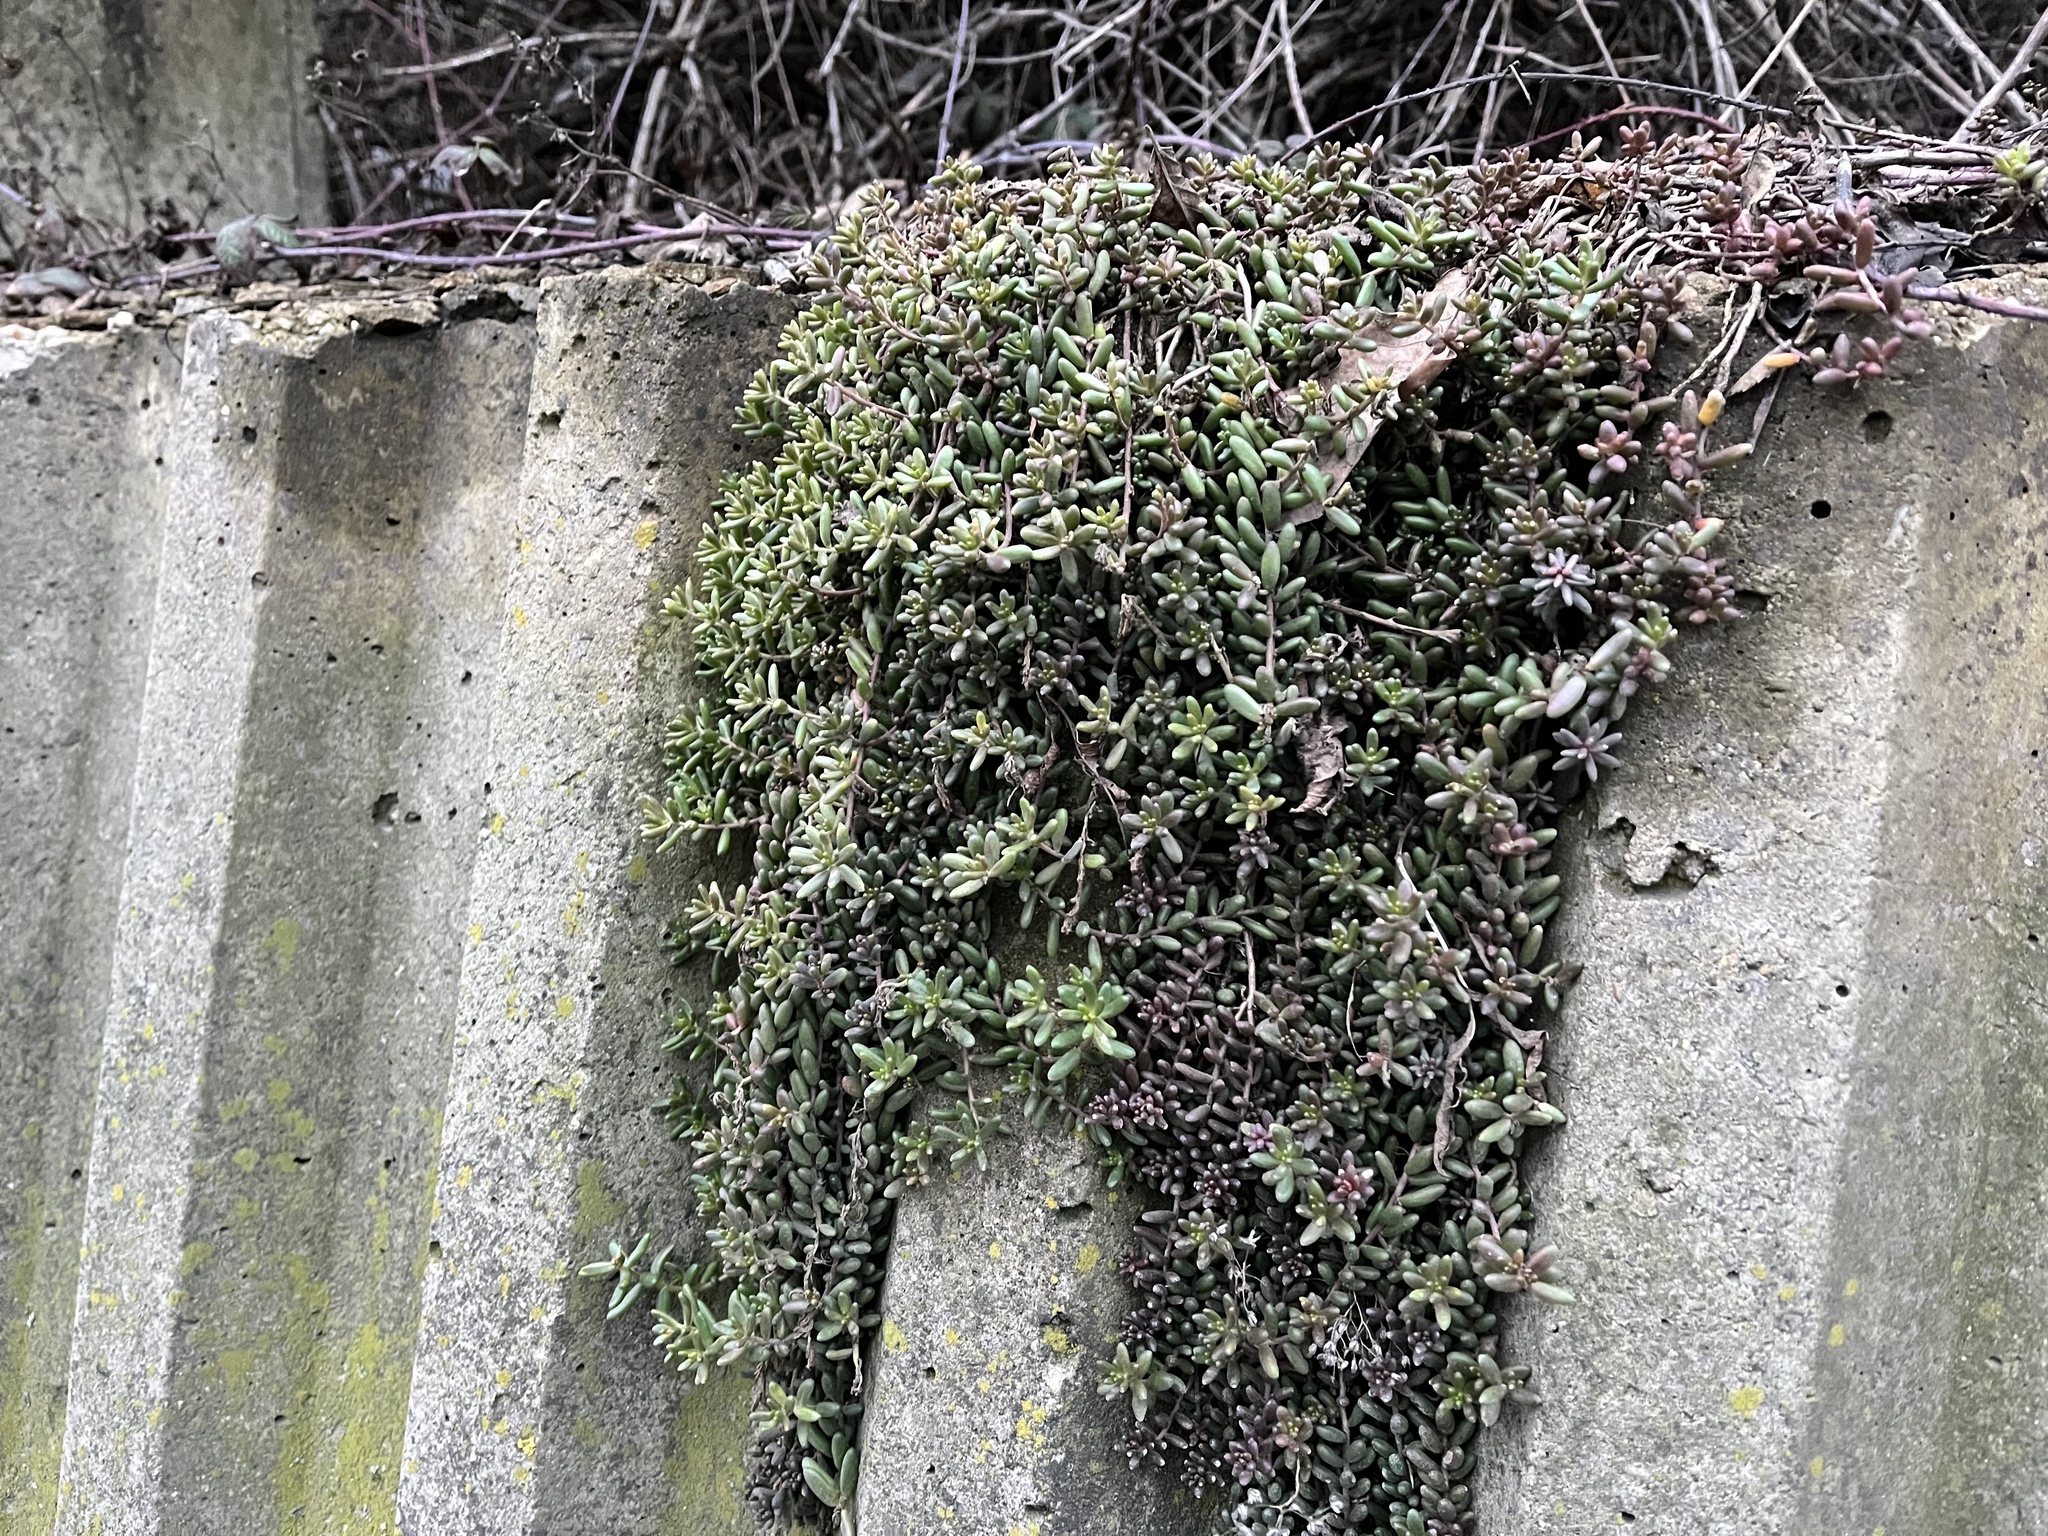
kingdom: Plantae
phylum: Tracheophyta
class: Magnoliopsida
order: Saxifragales
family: Crassulaceae
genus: Sedum
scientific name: Sedum album
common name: White stonecrop
